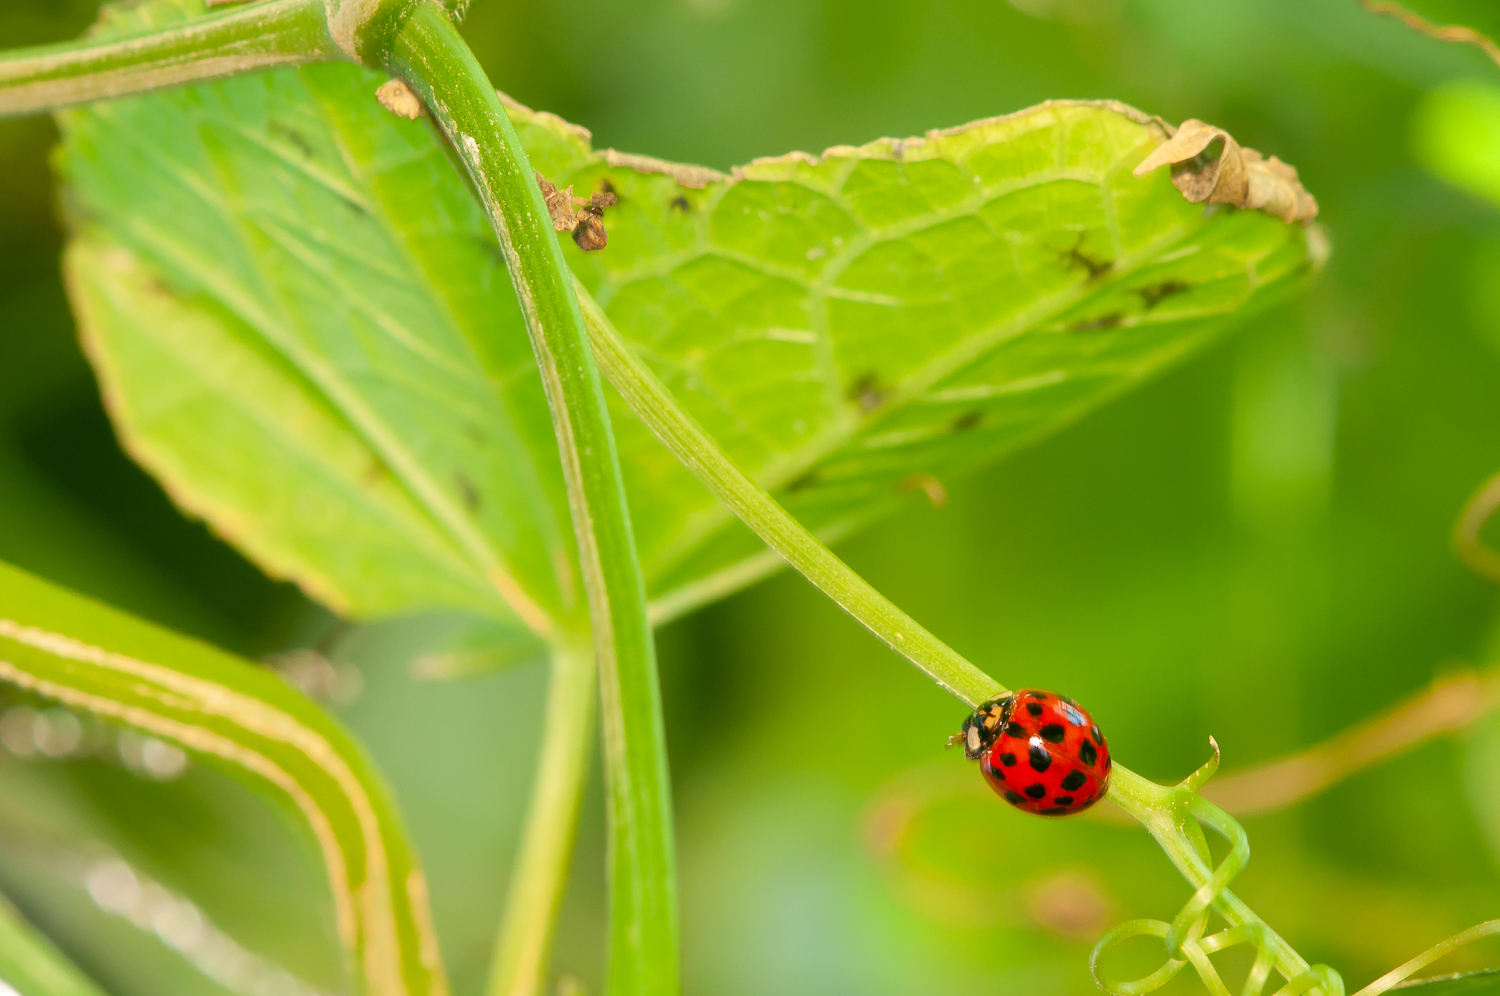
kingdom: Animalia
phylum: Arthropoda
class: Insecta
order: Coleoptera
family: Coccinellidae
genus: Harmonia
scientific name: Harmonia axyridis
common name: Harlequin ladybird
